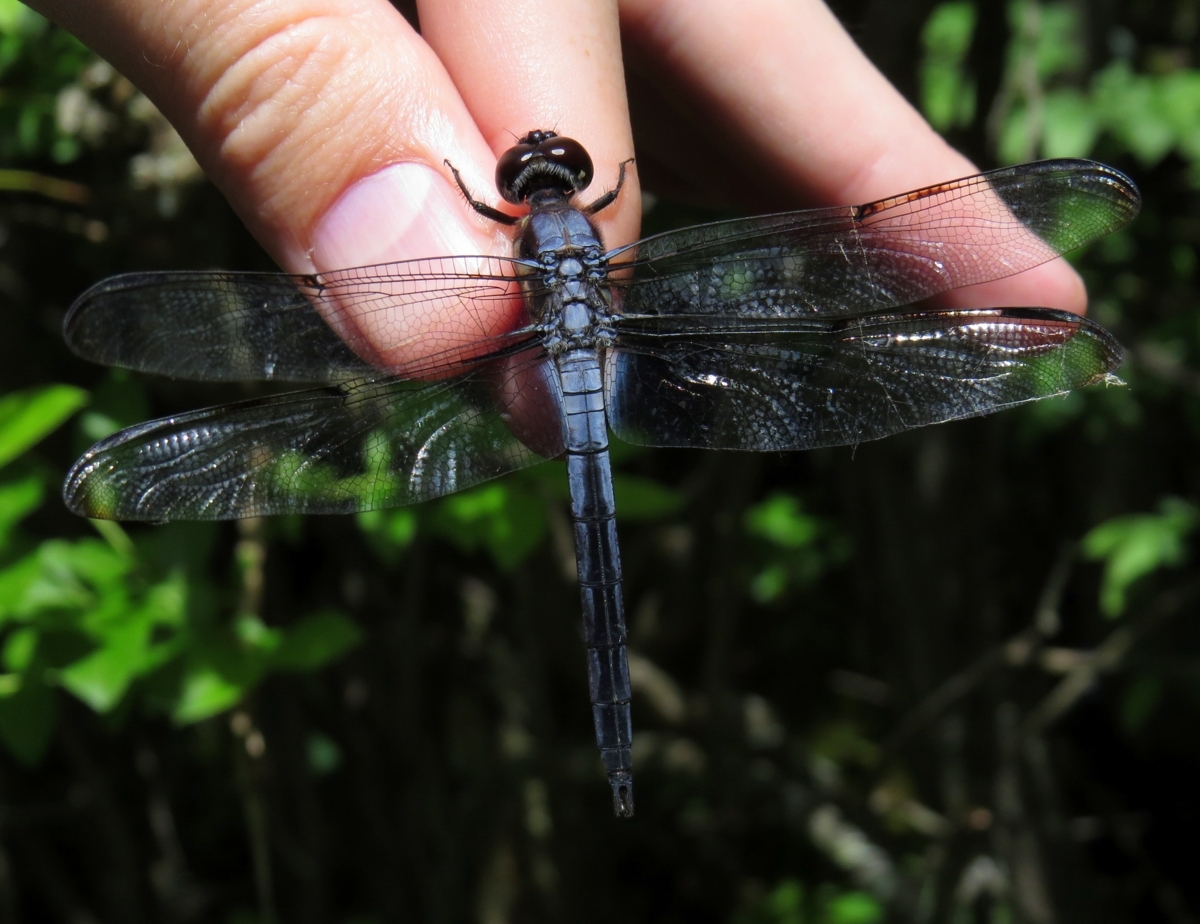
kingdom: Animalia
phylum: Arthropoda
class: Insecta
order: Odonata
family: Libellulidae
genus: Libellula
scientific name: Libellula axilena
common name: Bar-winged skimmer
